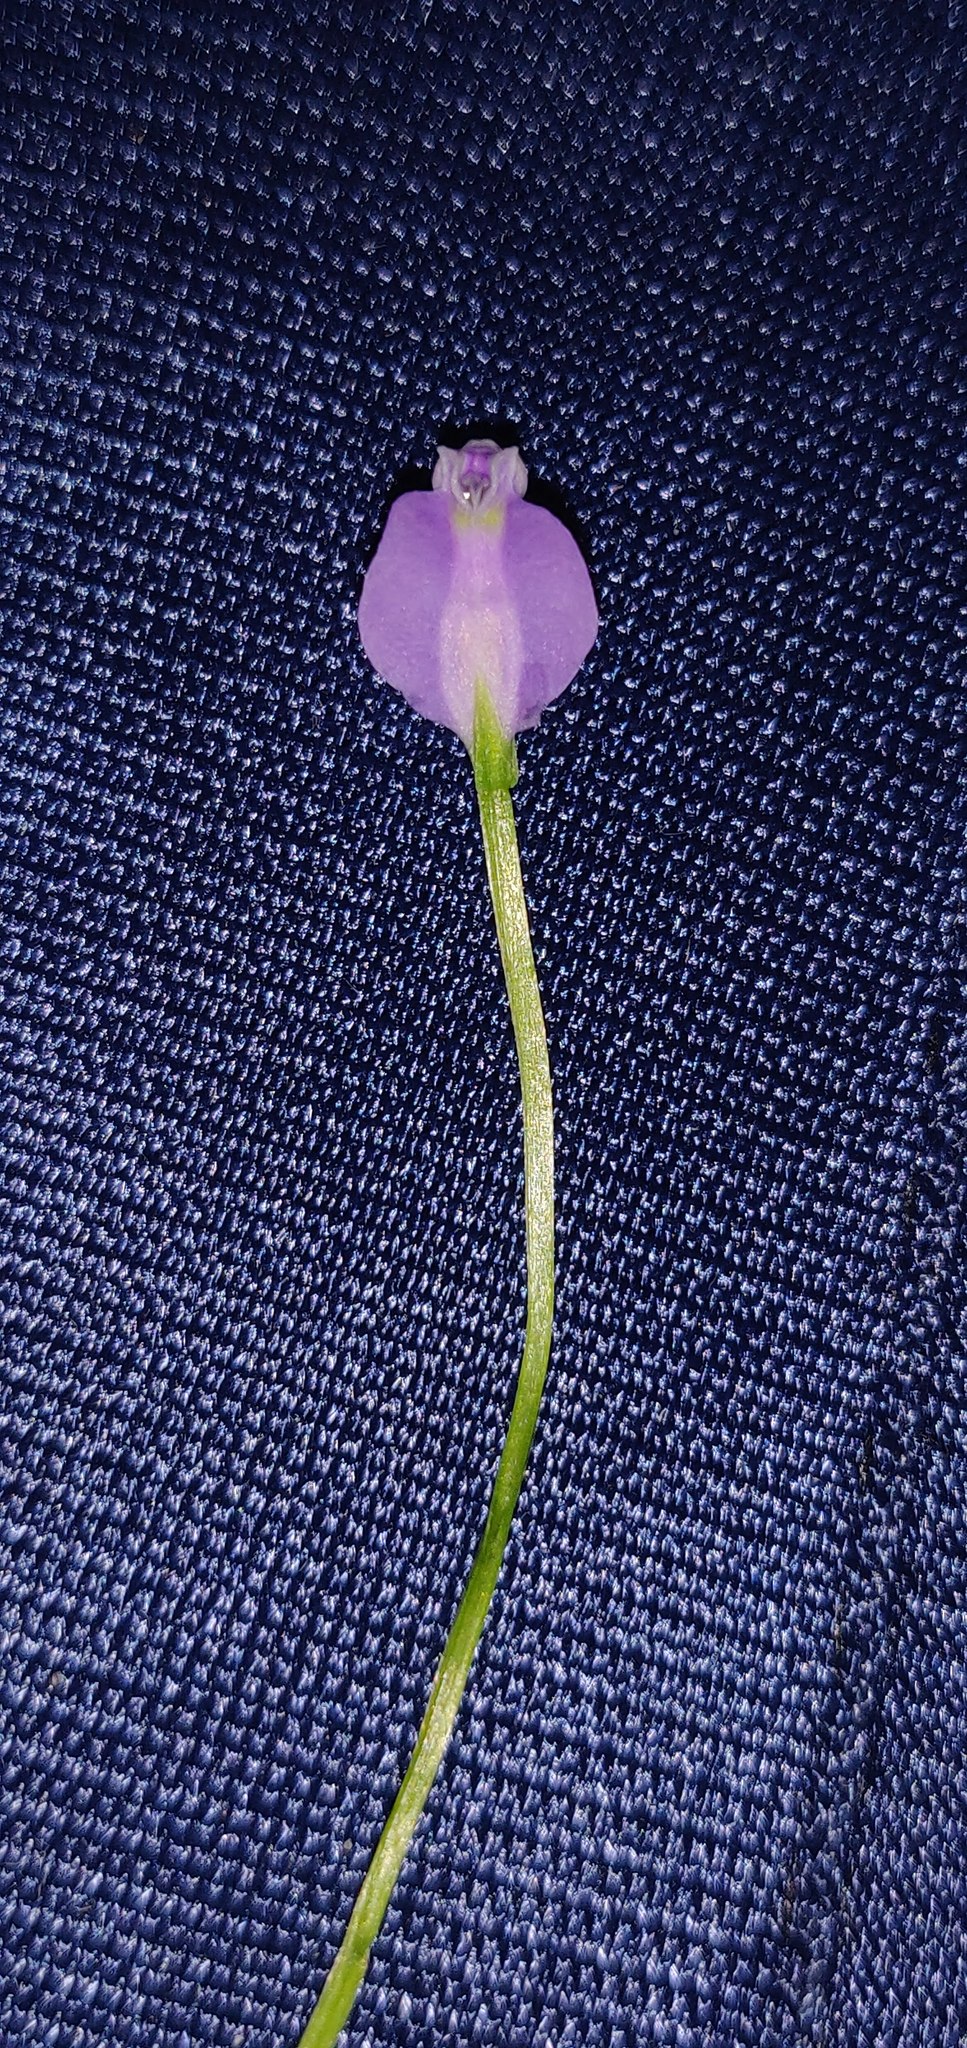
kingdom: Plantae
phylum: Tracheophyta
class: Liliopsida
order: Dioscoreales
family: Burmanniaceae
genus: Burmannia
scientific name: Burmannia pusilla
